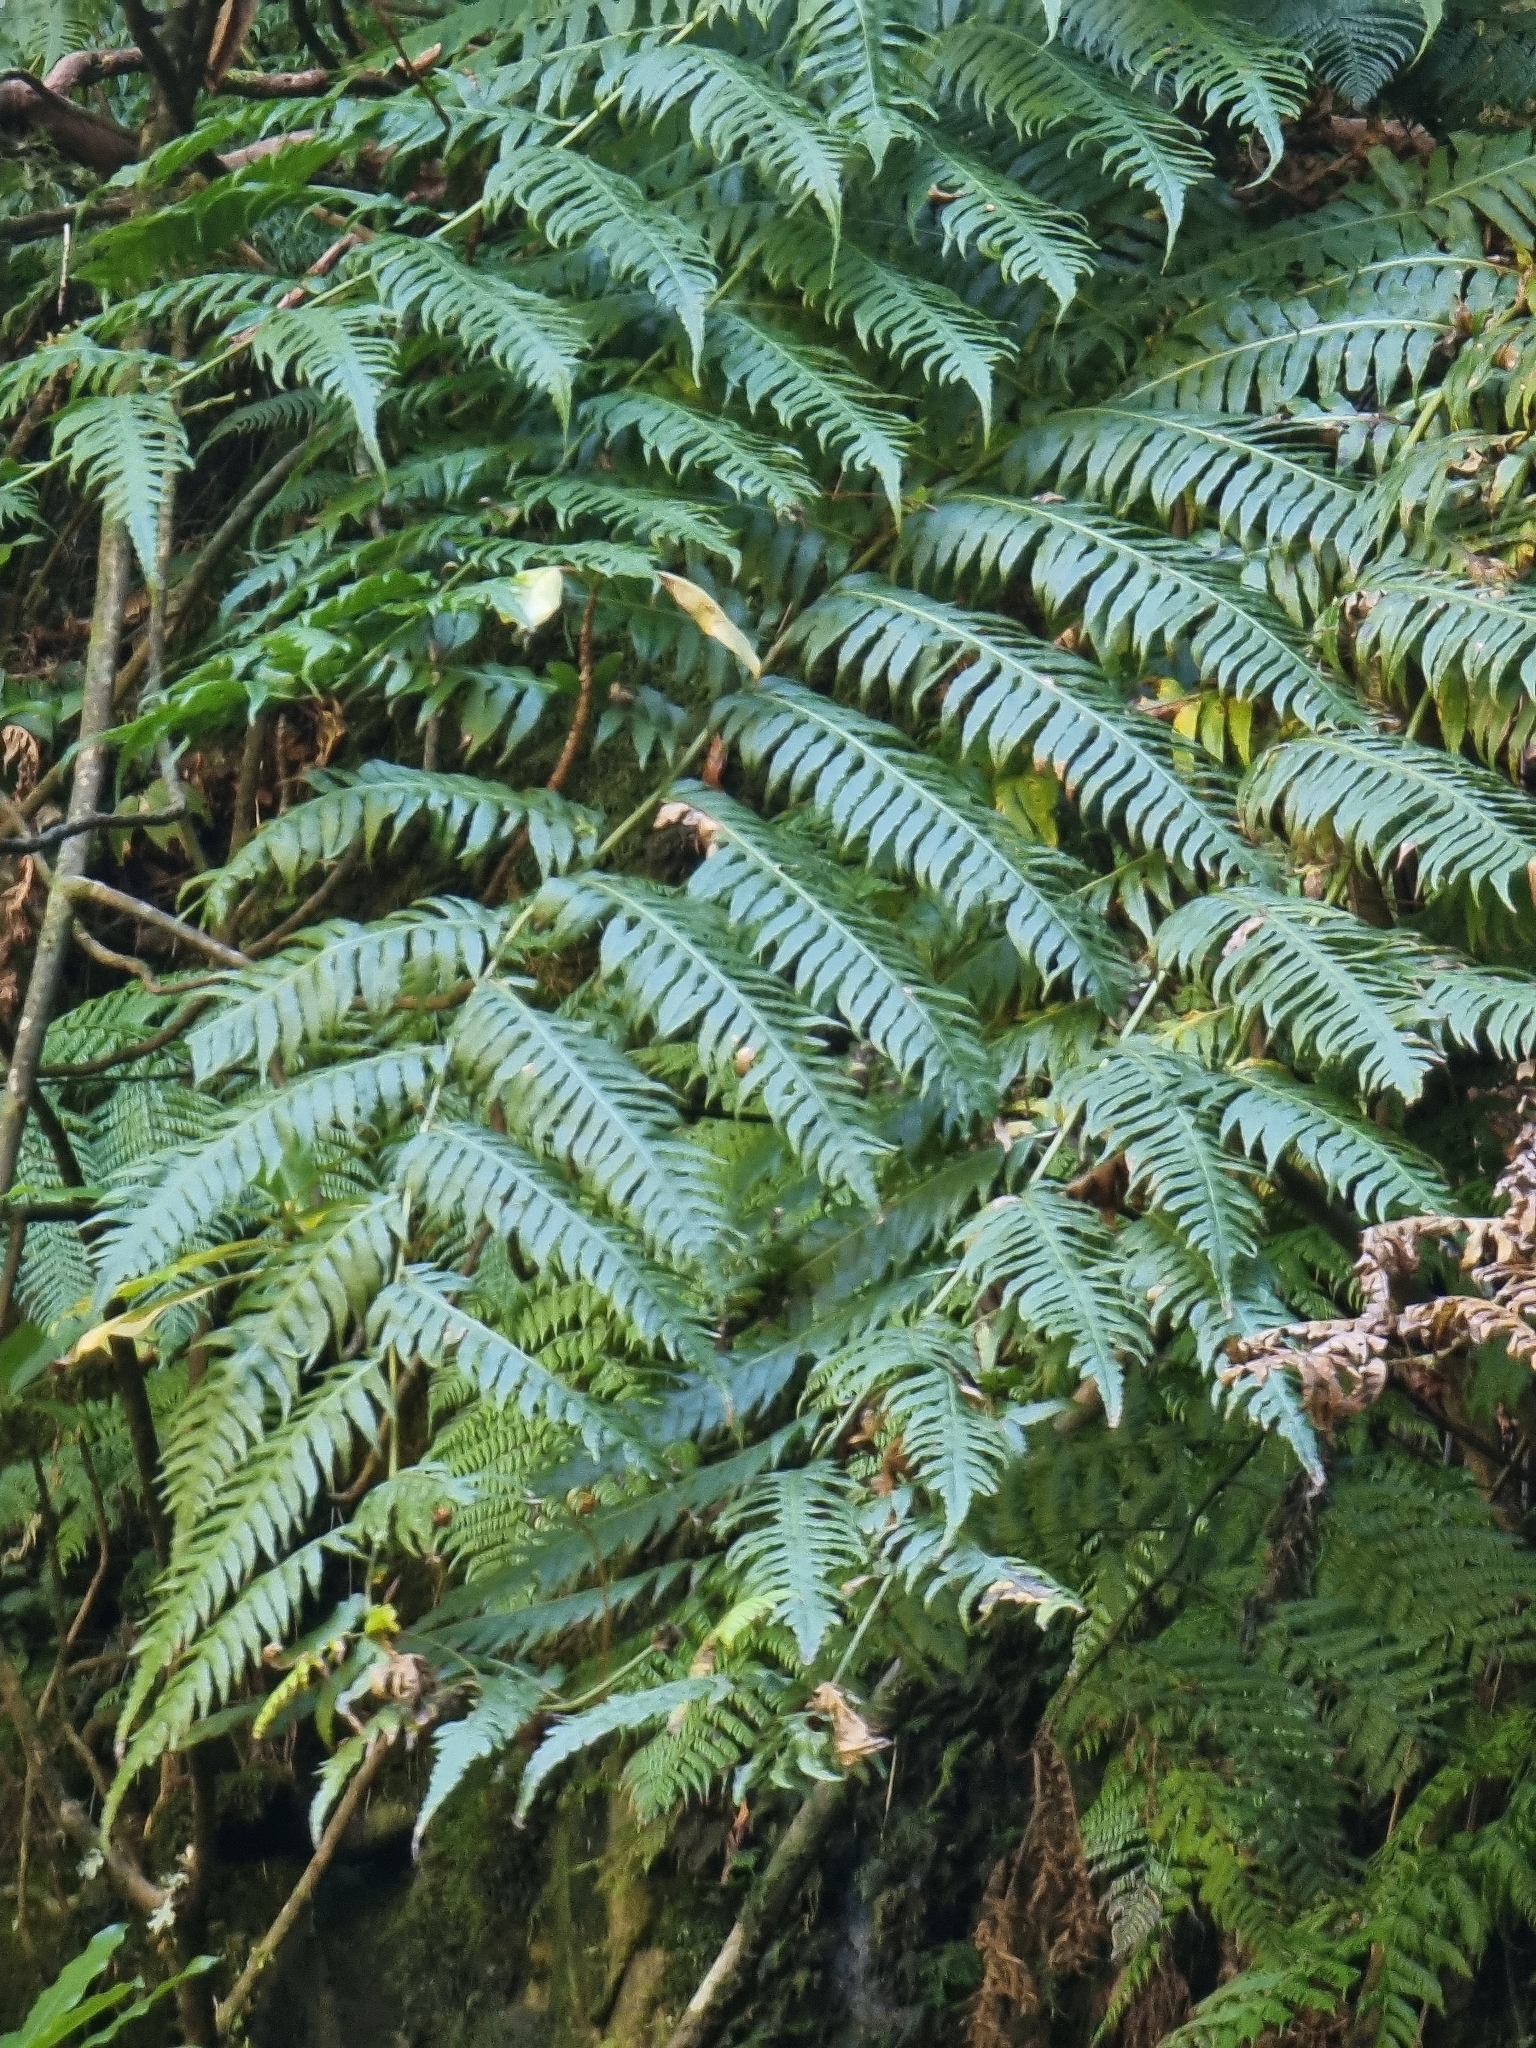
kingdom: Plantae
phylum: Tracheophyta
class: Polypodiopsida
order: Polypodiales
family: Blechnaceae
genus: Woodwardia
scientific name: Woodwardia radicans
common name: Rooting chainfern
